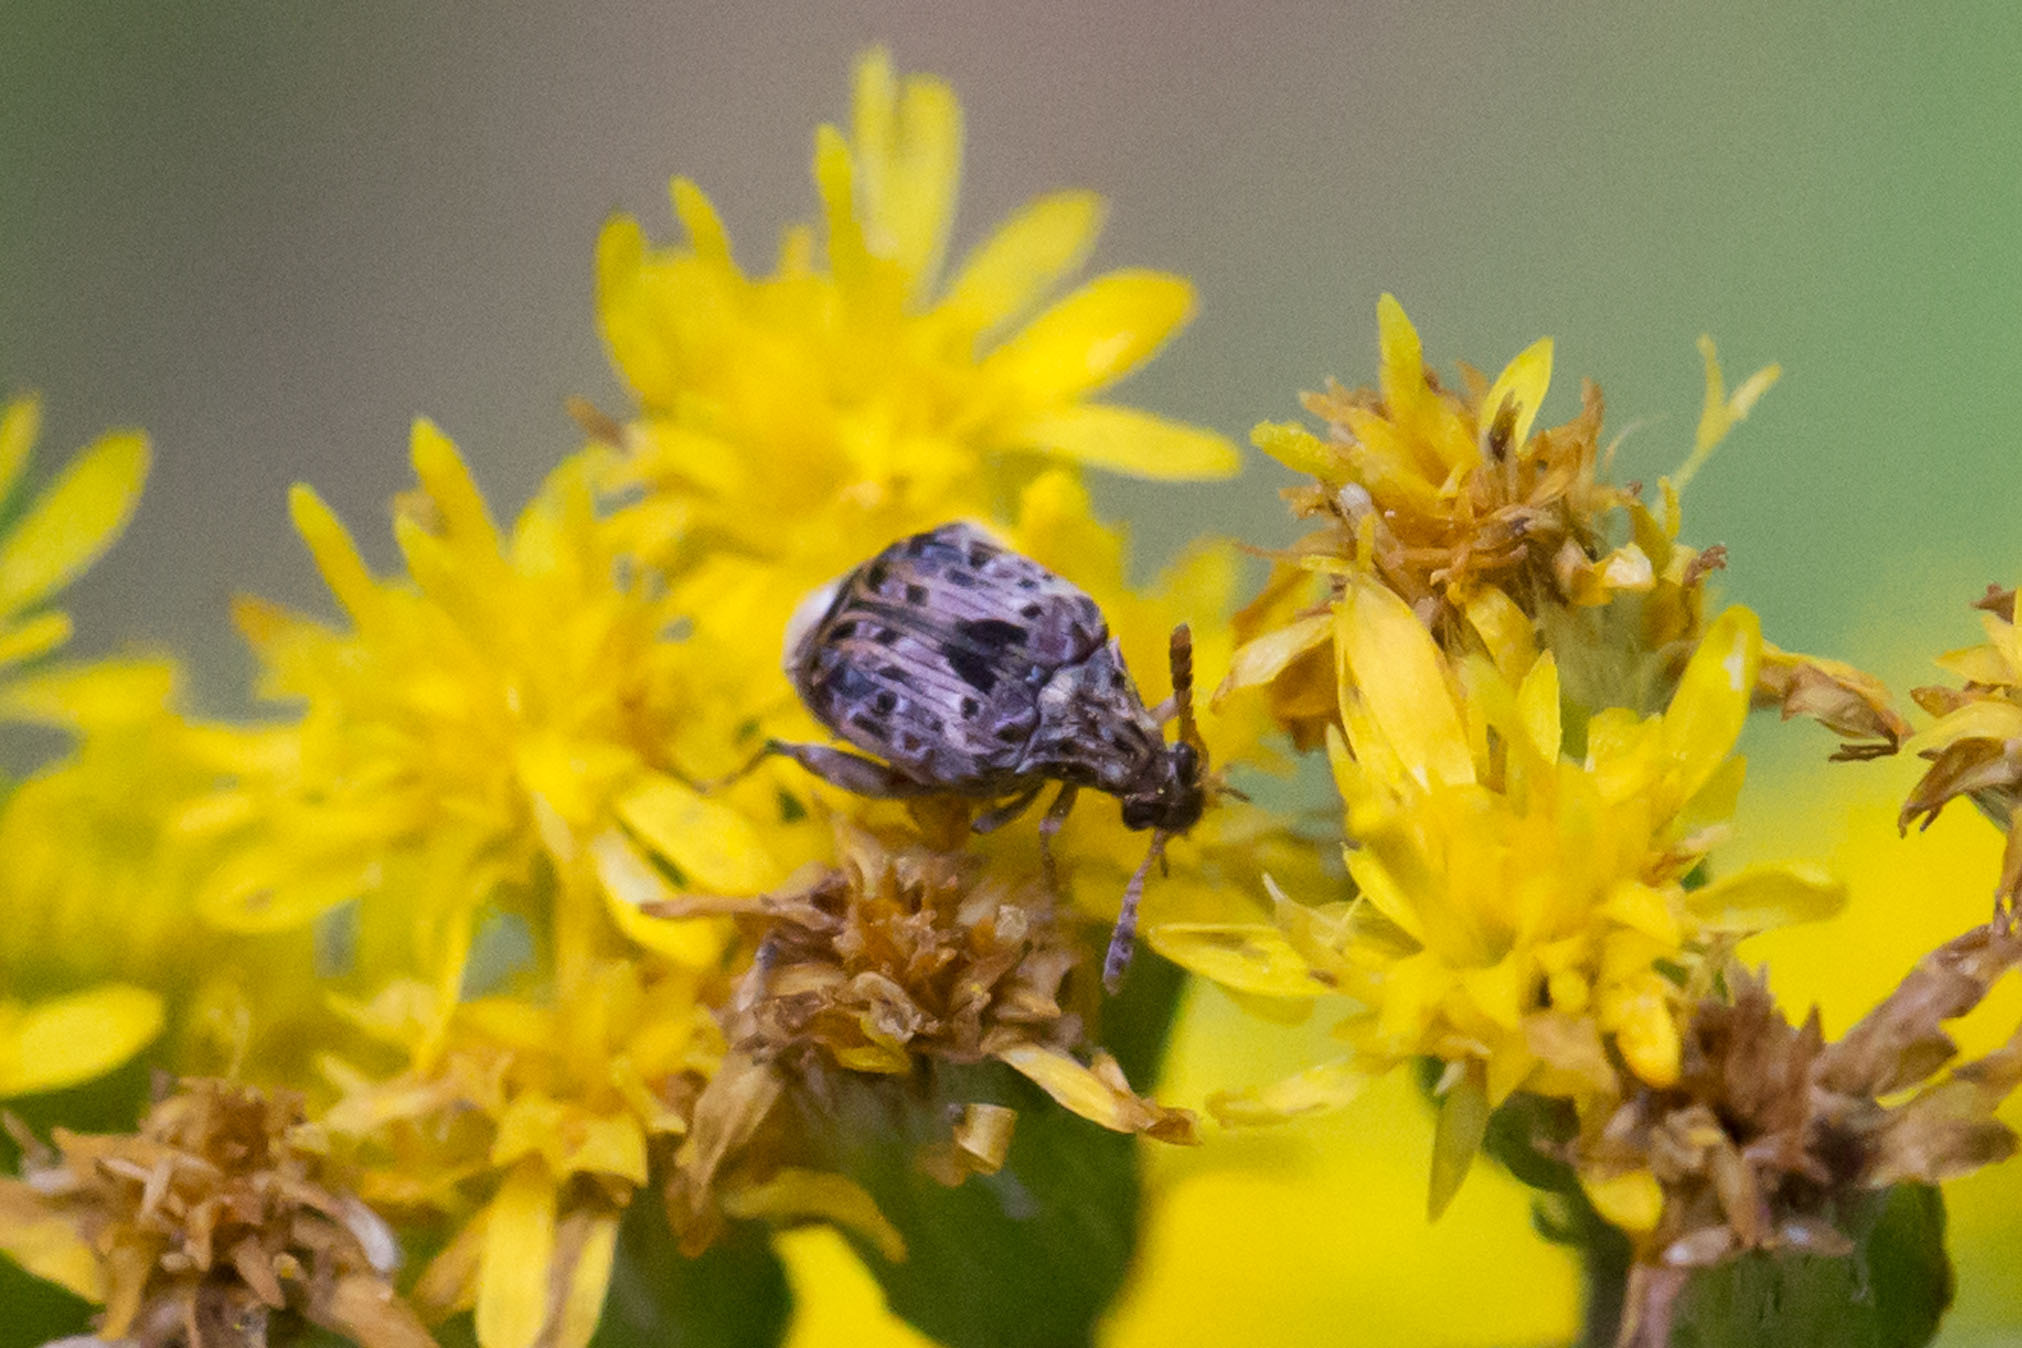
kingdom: Animalia
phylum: Arthropoda
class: Insecta
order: Coleoptera
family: Chrysomelidae
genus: Gibbobruchus
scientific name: Gibbobruchus mimus
